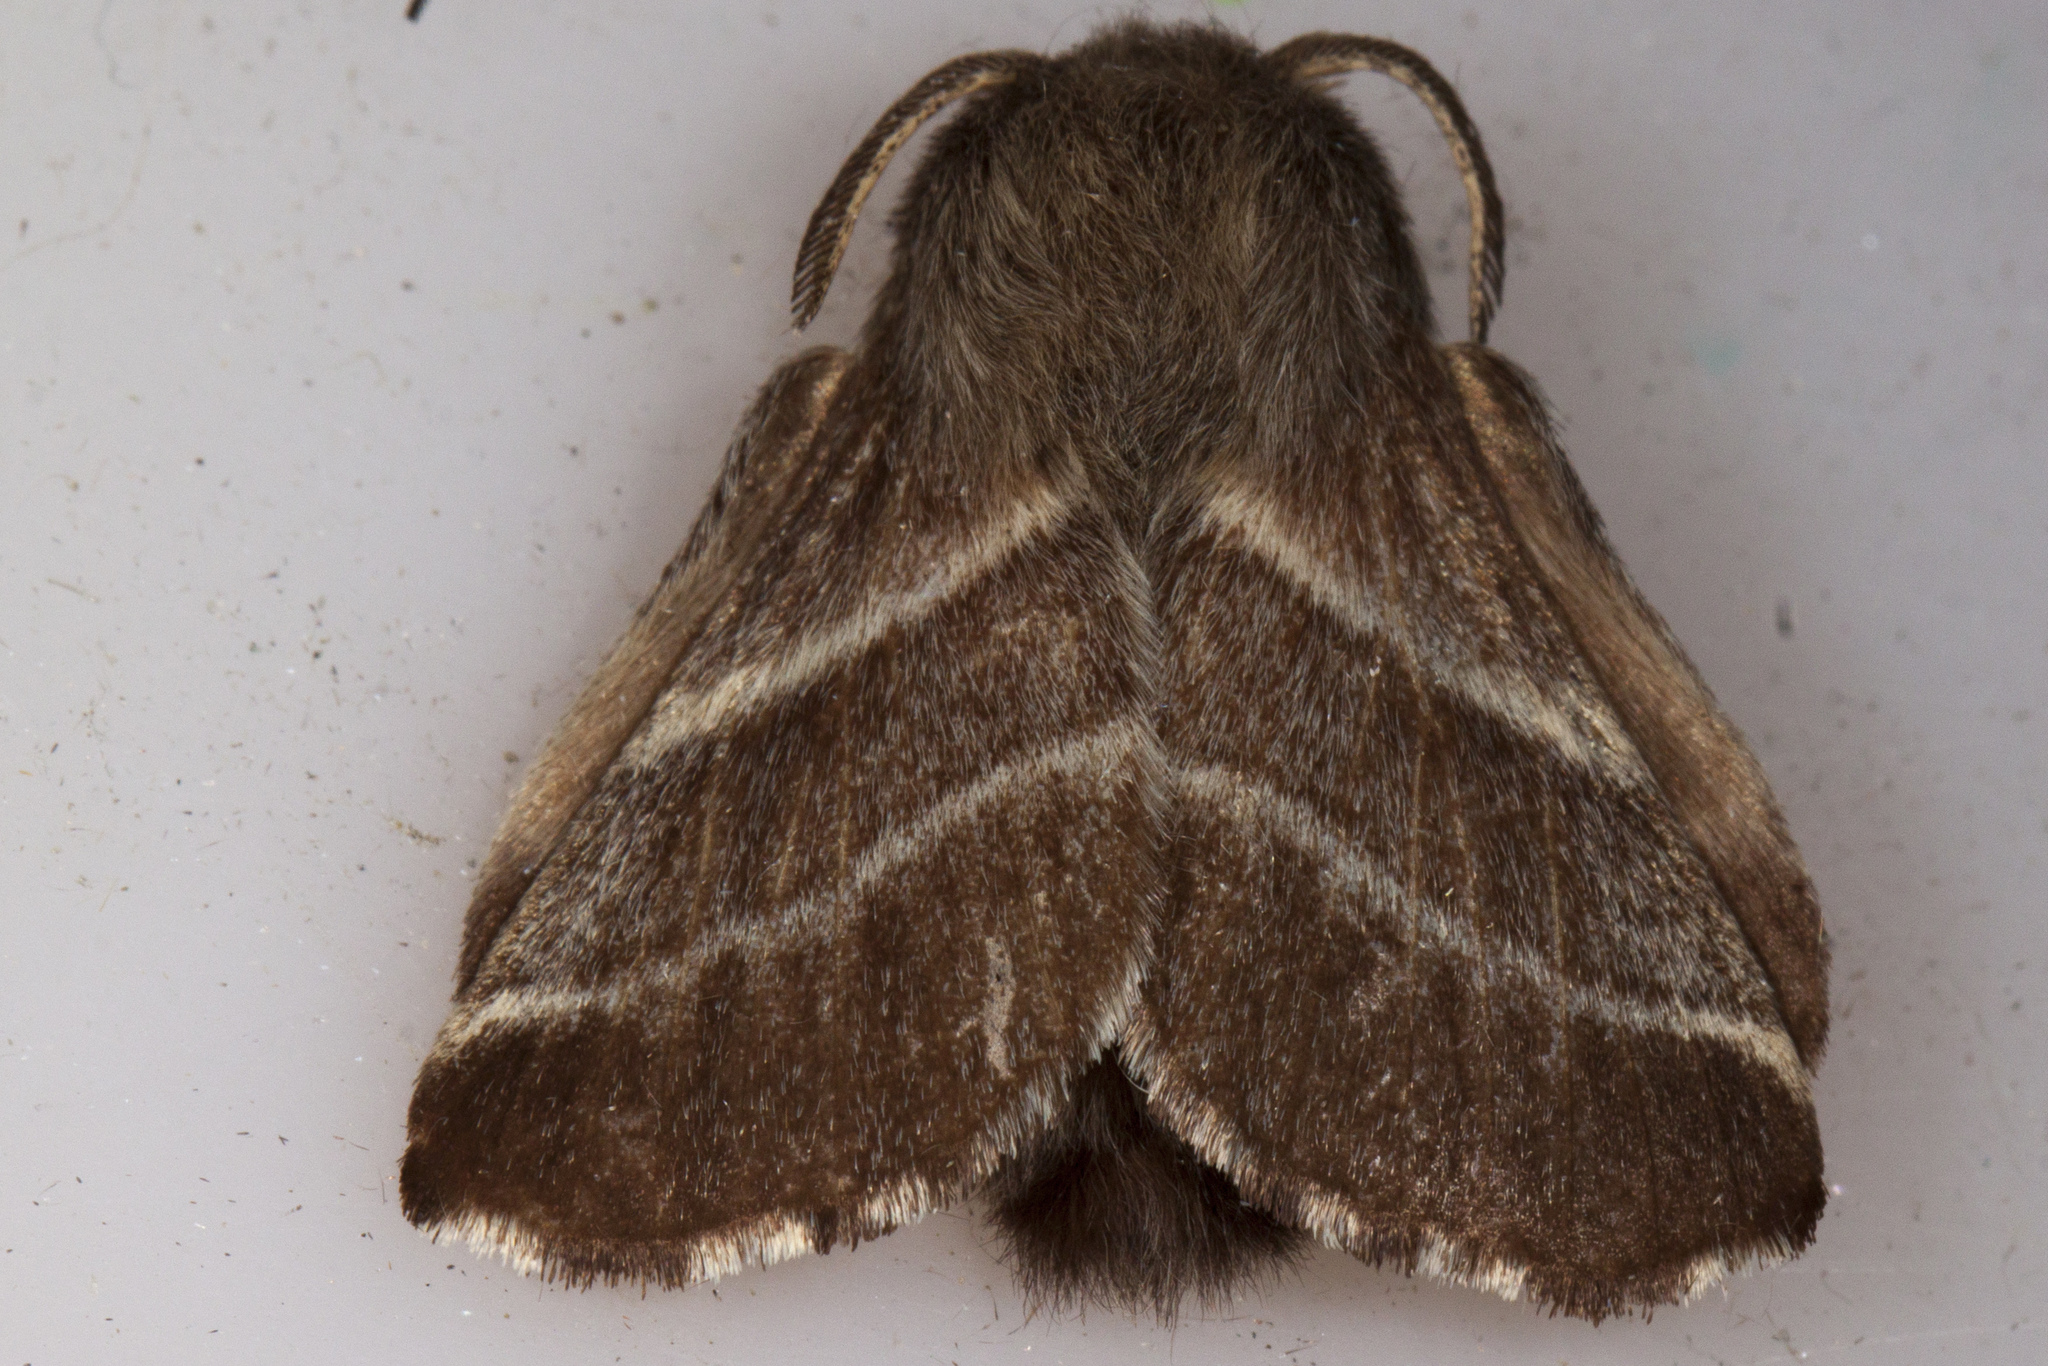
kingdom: Animalia
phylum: Arthropoda
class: Insecta
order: Lepidoptera
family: Lasiocampidae
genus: Malacosoma
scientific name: Malacosoma americana
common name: Eastern tent caterpillar moth
